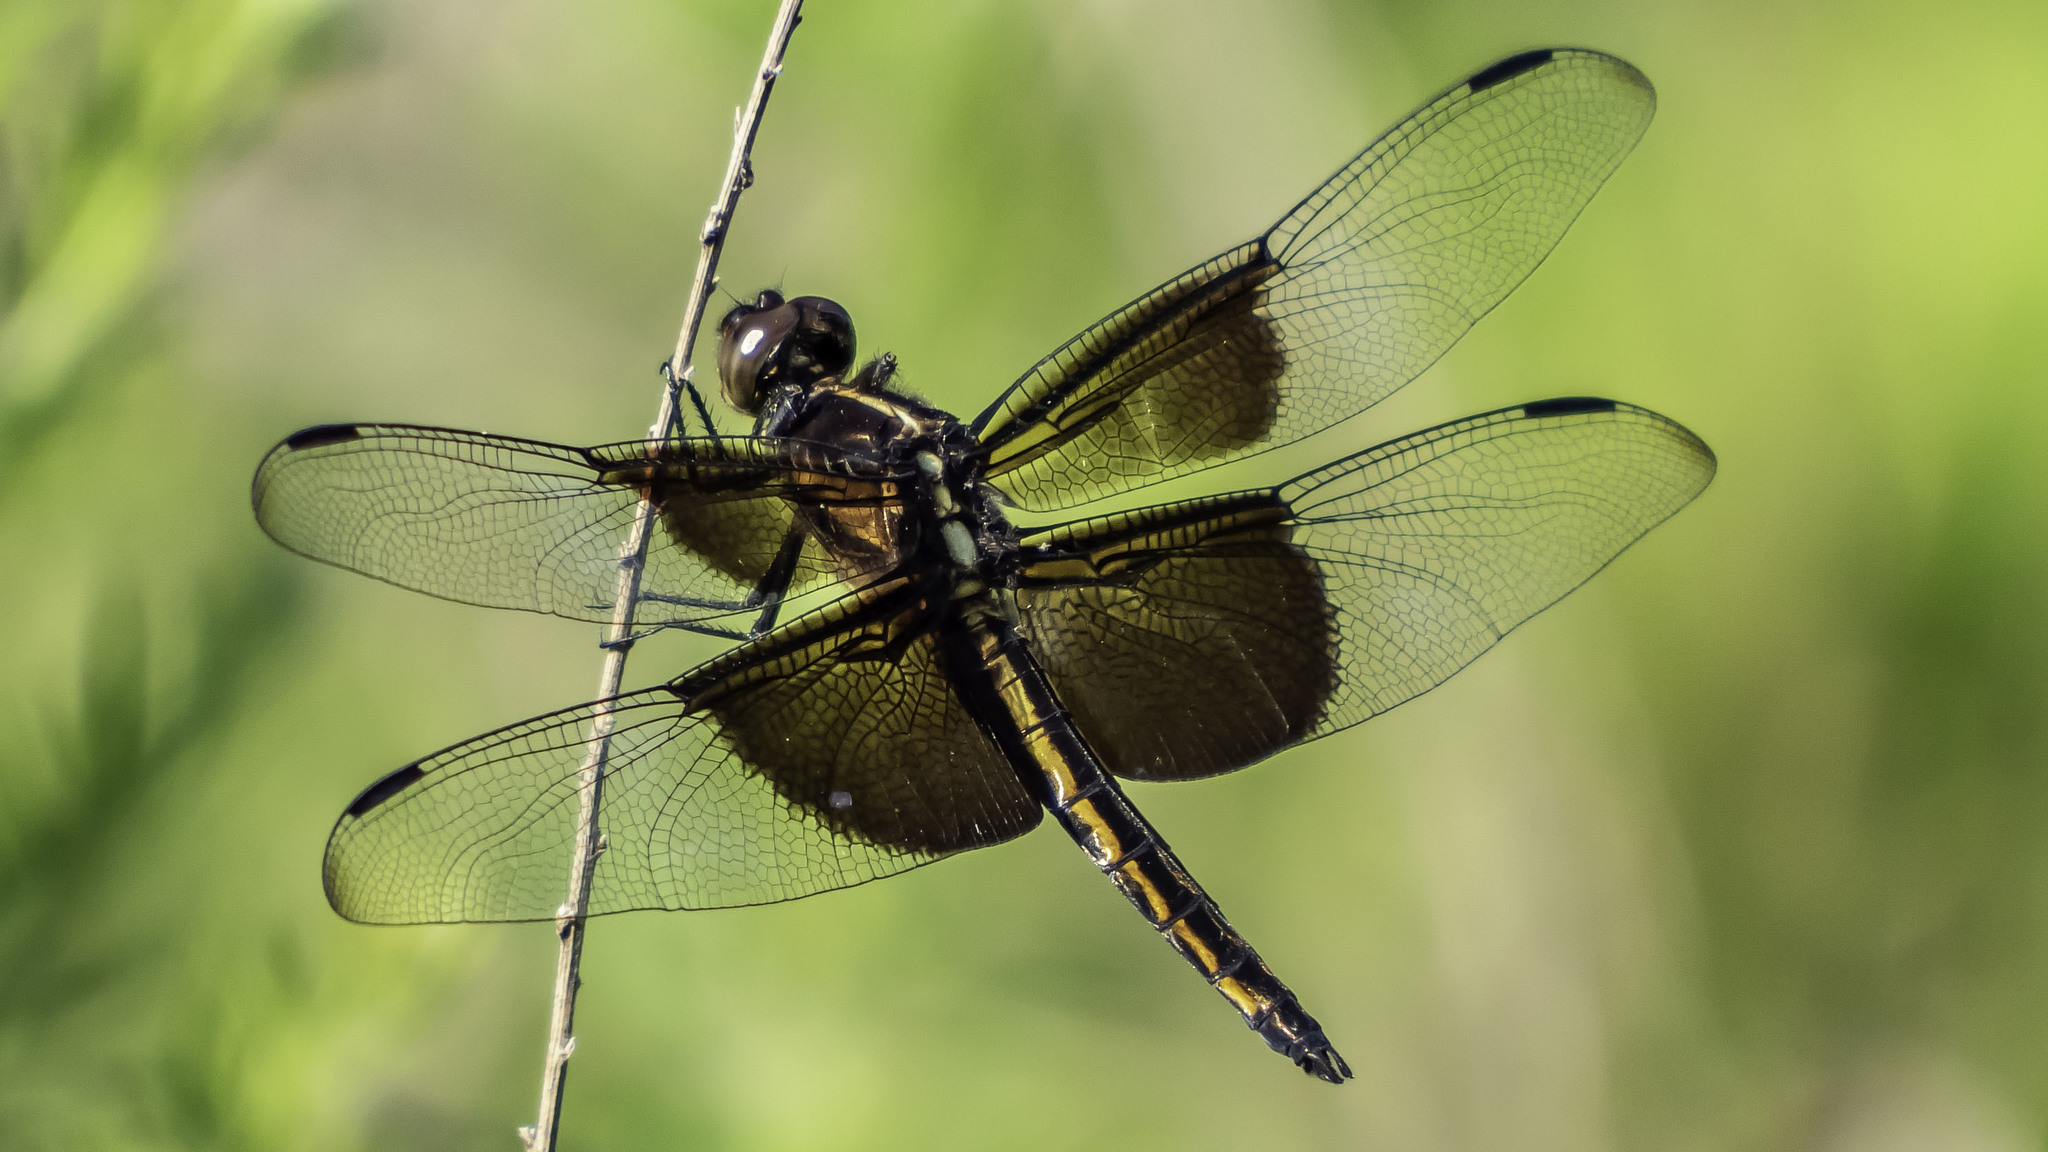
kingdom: Animalia
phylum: Arthropoda
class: Insecta
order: Odonata
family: Libellulidae
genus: Libellula
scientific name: Libellula luctuosa
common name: Widow skimmer
